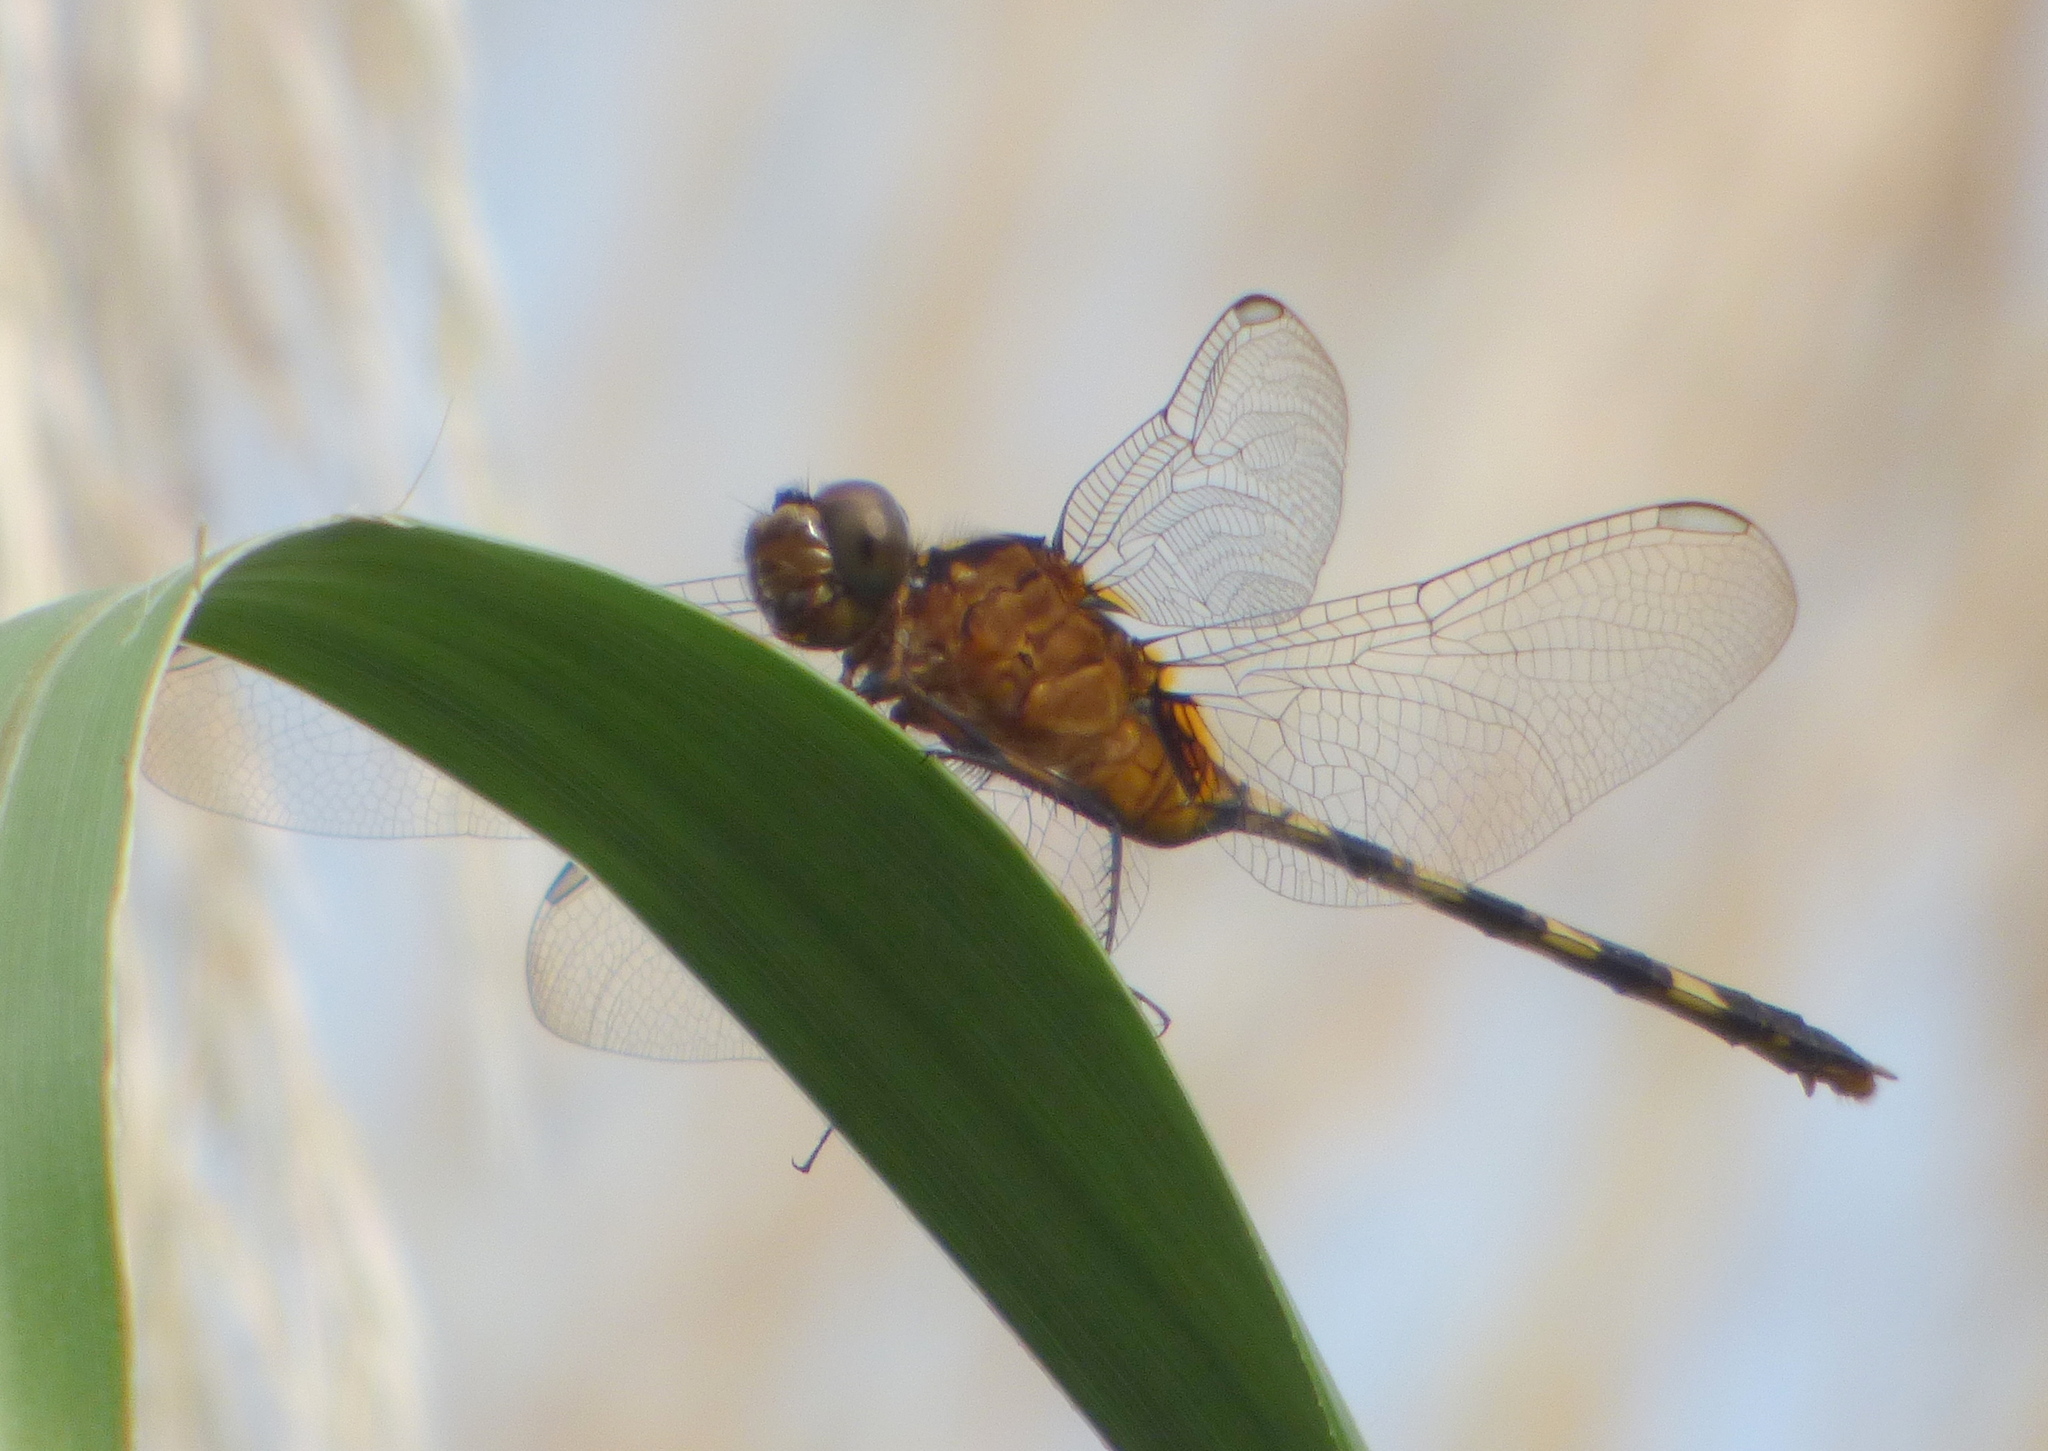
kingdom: Animalia
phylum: Arthropoda
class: Insecta
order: Odonata
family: Libellulidae
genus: Erythemis
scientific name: Erythemis plebeja
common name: Pin-tailed pondhawk
